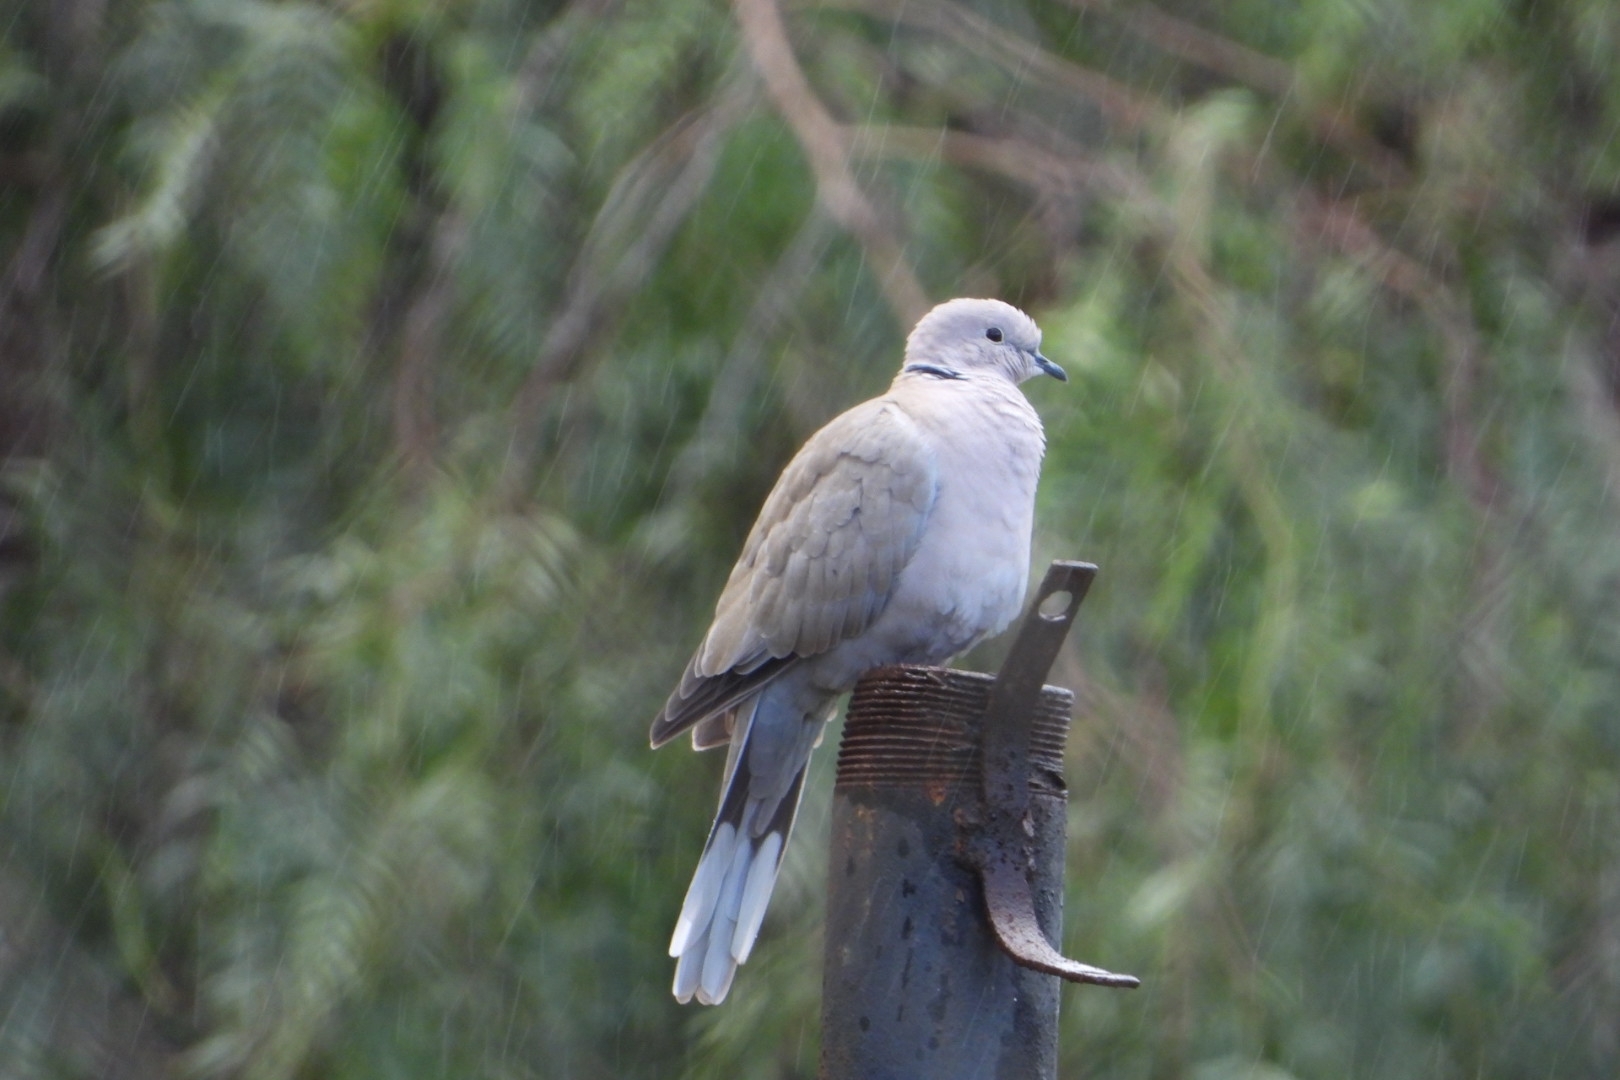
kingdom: Animalia
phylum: Chordata
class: Aves
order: Columbiformes
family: Columbidae
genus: Streptopelia
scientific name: Streptopelia decaocto
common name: Eurasian collared dove
